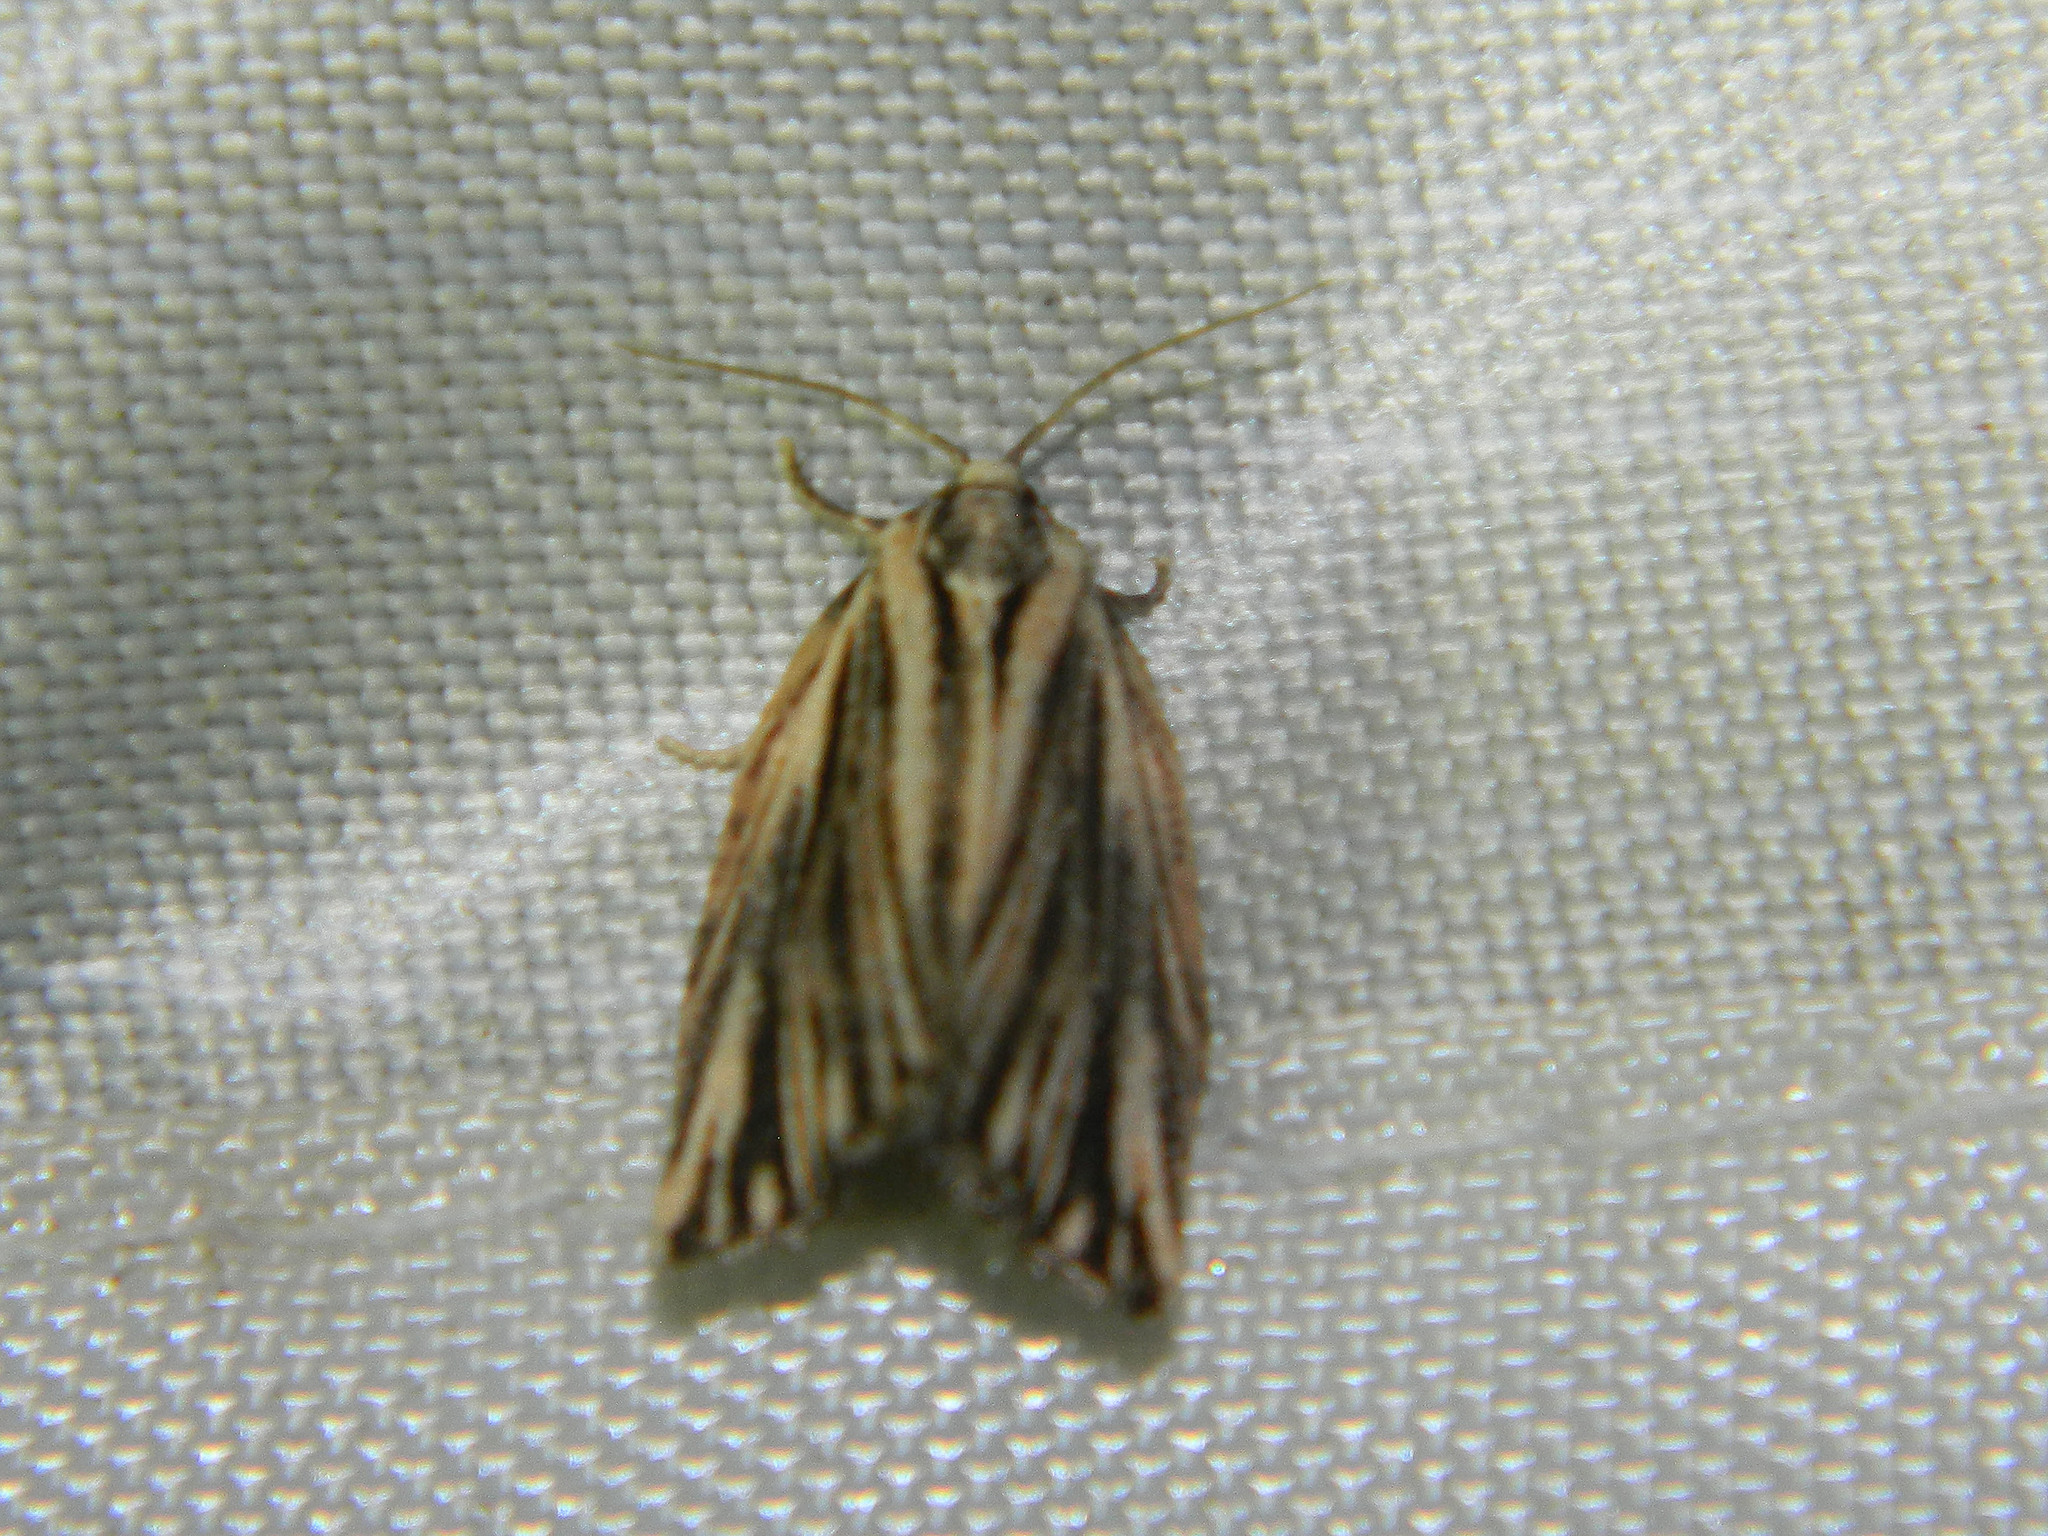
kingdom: Animalia
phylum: Arthropoda
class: Insecta
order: Lepidoptera
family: Tortricidae
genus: Archips
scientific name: Archips strianus
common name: Striated tortrix moth
